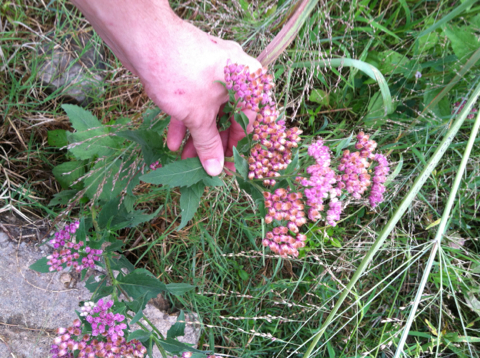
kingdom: Plantae
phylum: Tracheophyta
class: Magnoliopsida
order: Asterales
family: Asteraceae
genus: Pluchea
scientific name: Pluchea odorata
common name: Saltmarsh fleabane
